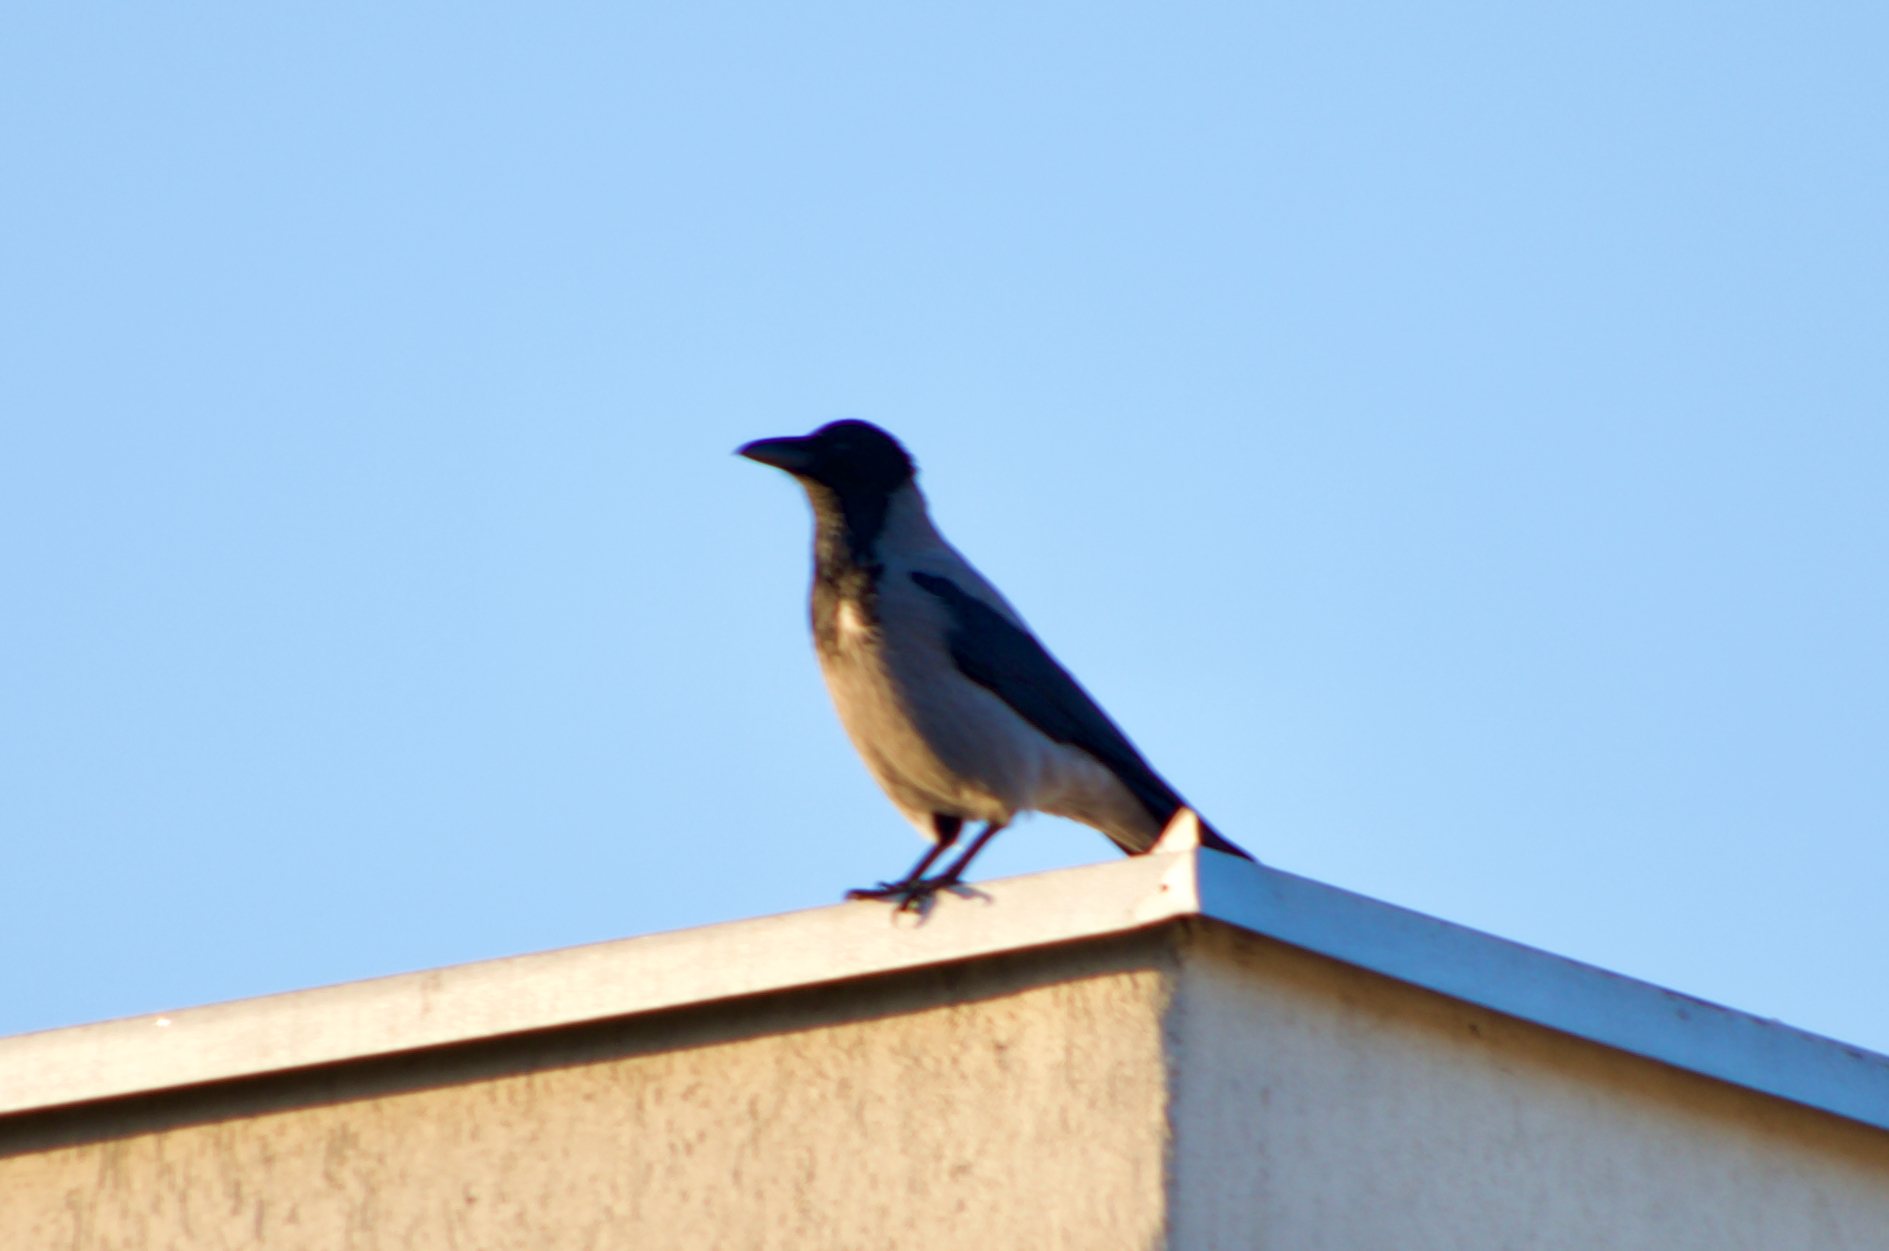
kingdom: Animalia
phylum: Chordata
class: Aves
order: Passeriformes
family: Corvidae
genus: Corvus
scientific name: Corvus cornix
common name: Hooded crow
